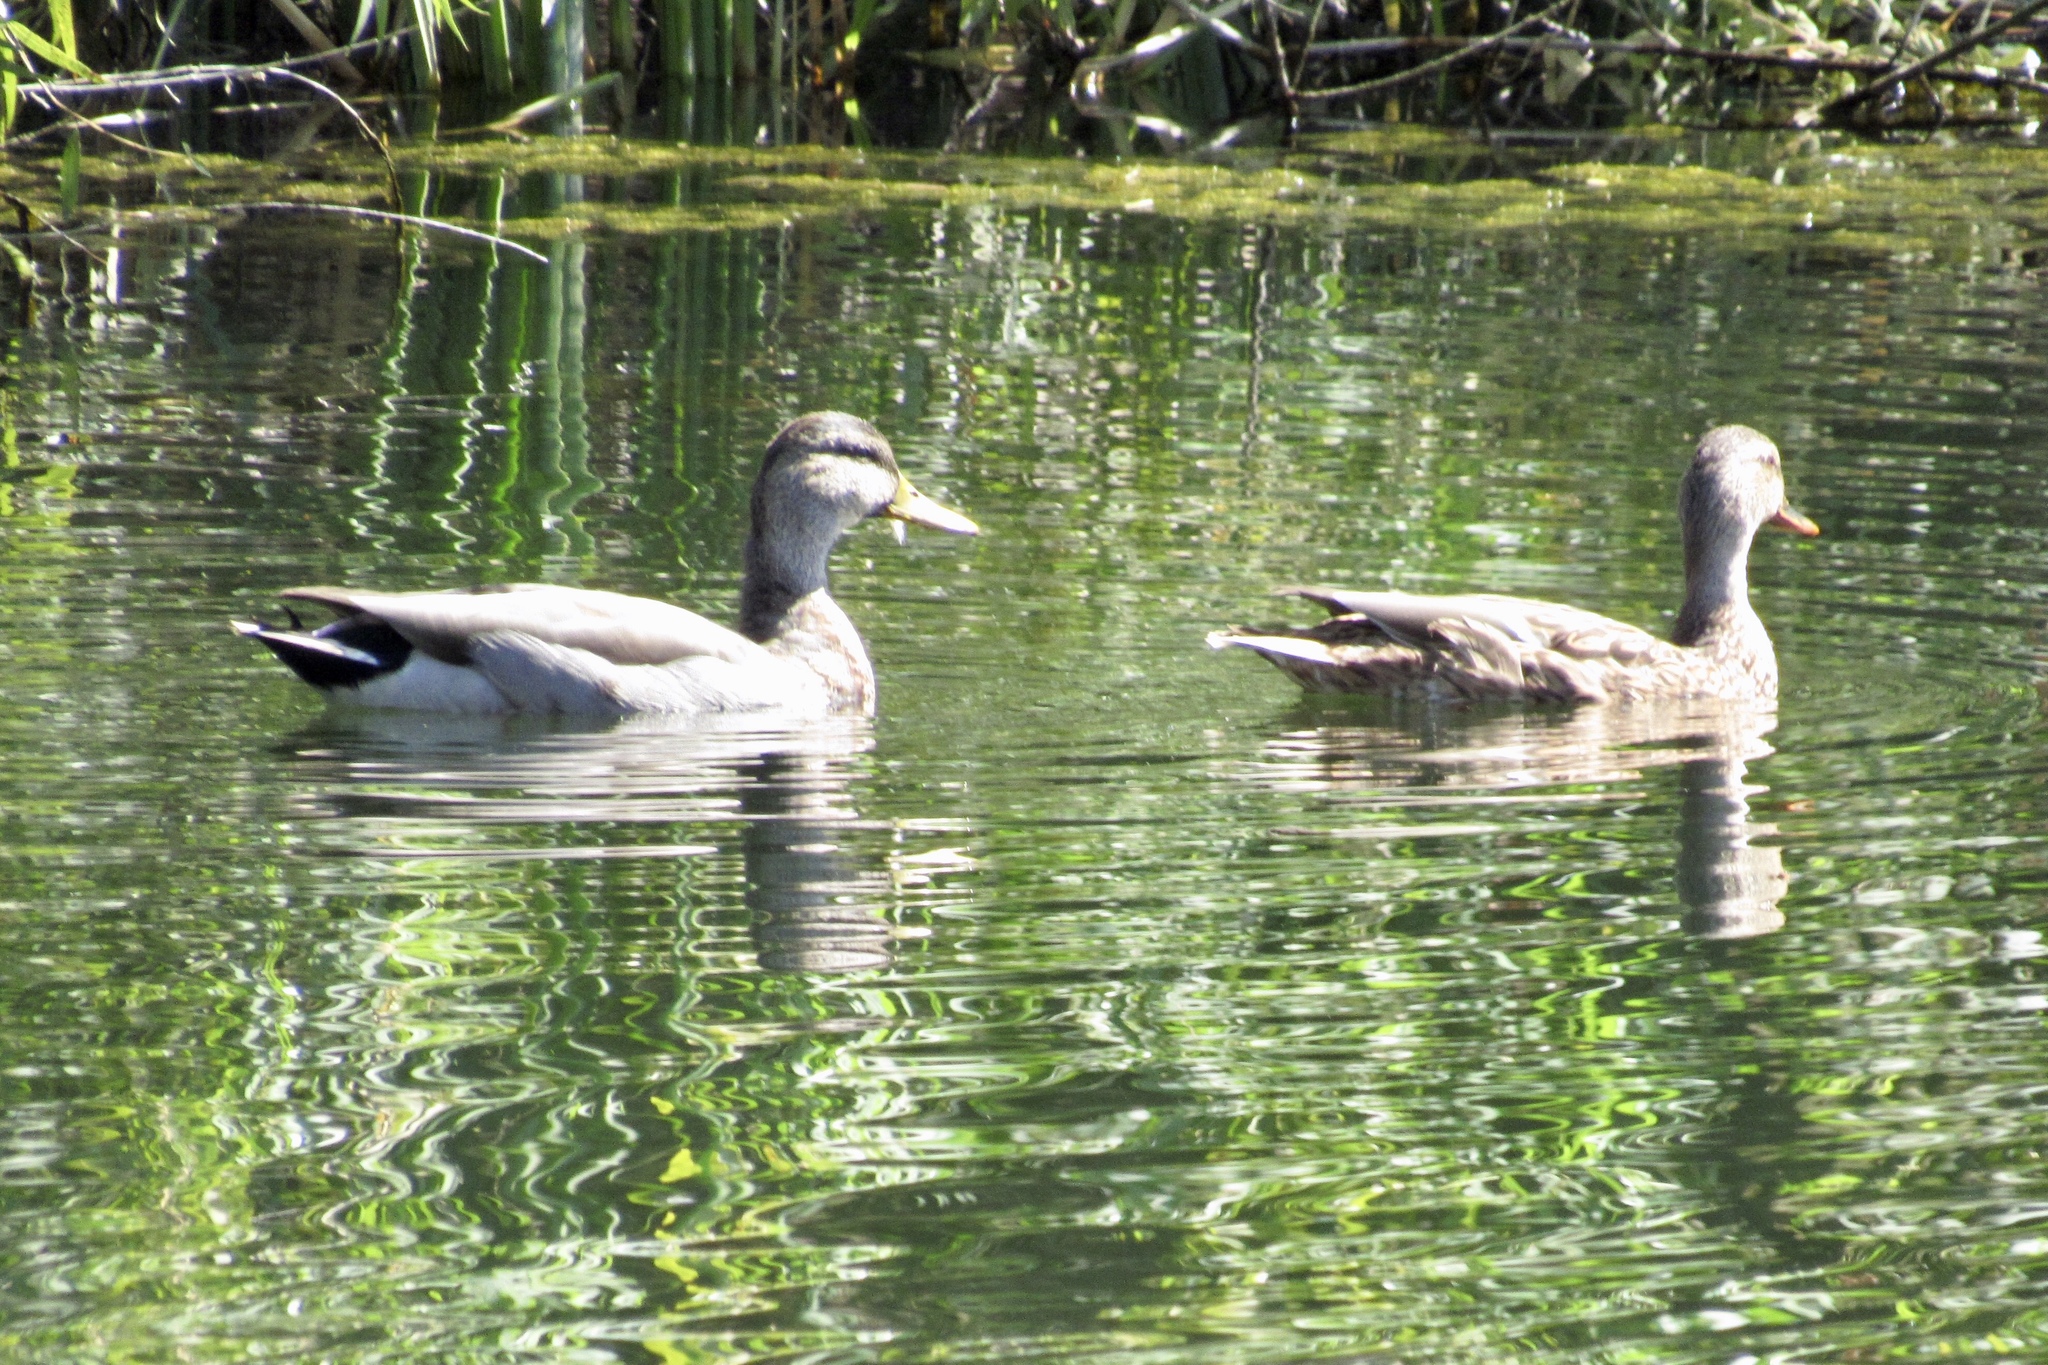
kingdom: Animalia
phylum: Chordata
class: Aves
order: Anseriformes
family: Anatidae
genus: Anas
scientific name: Anas platyrhynchos
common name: Mallard
